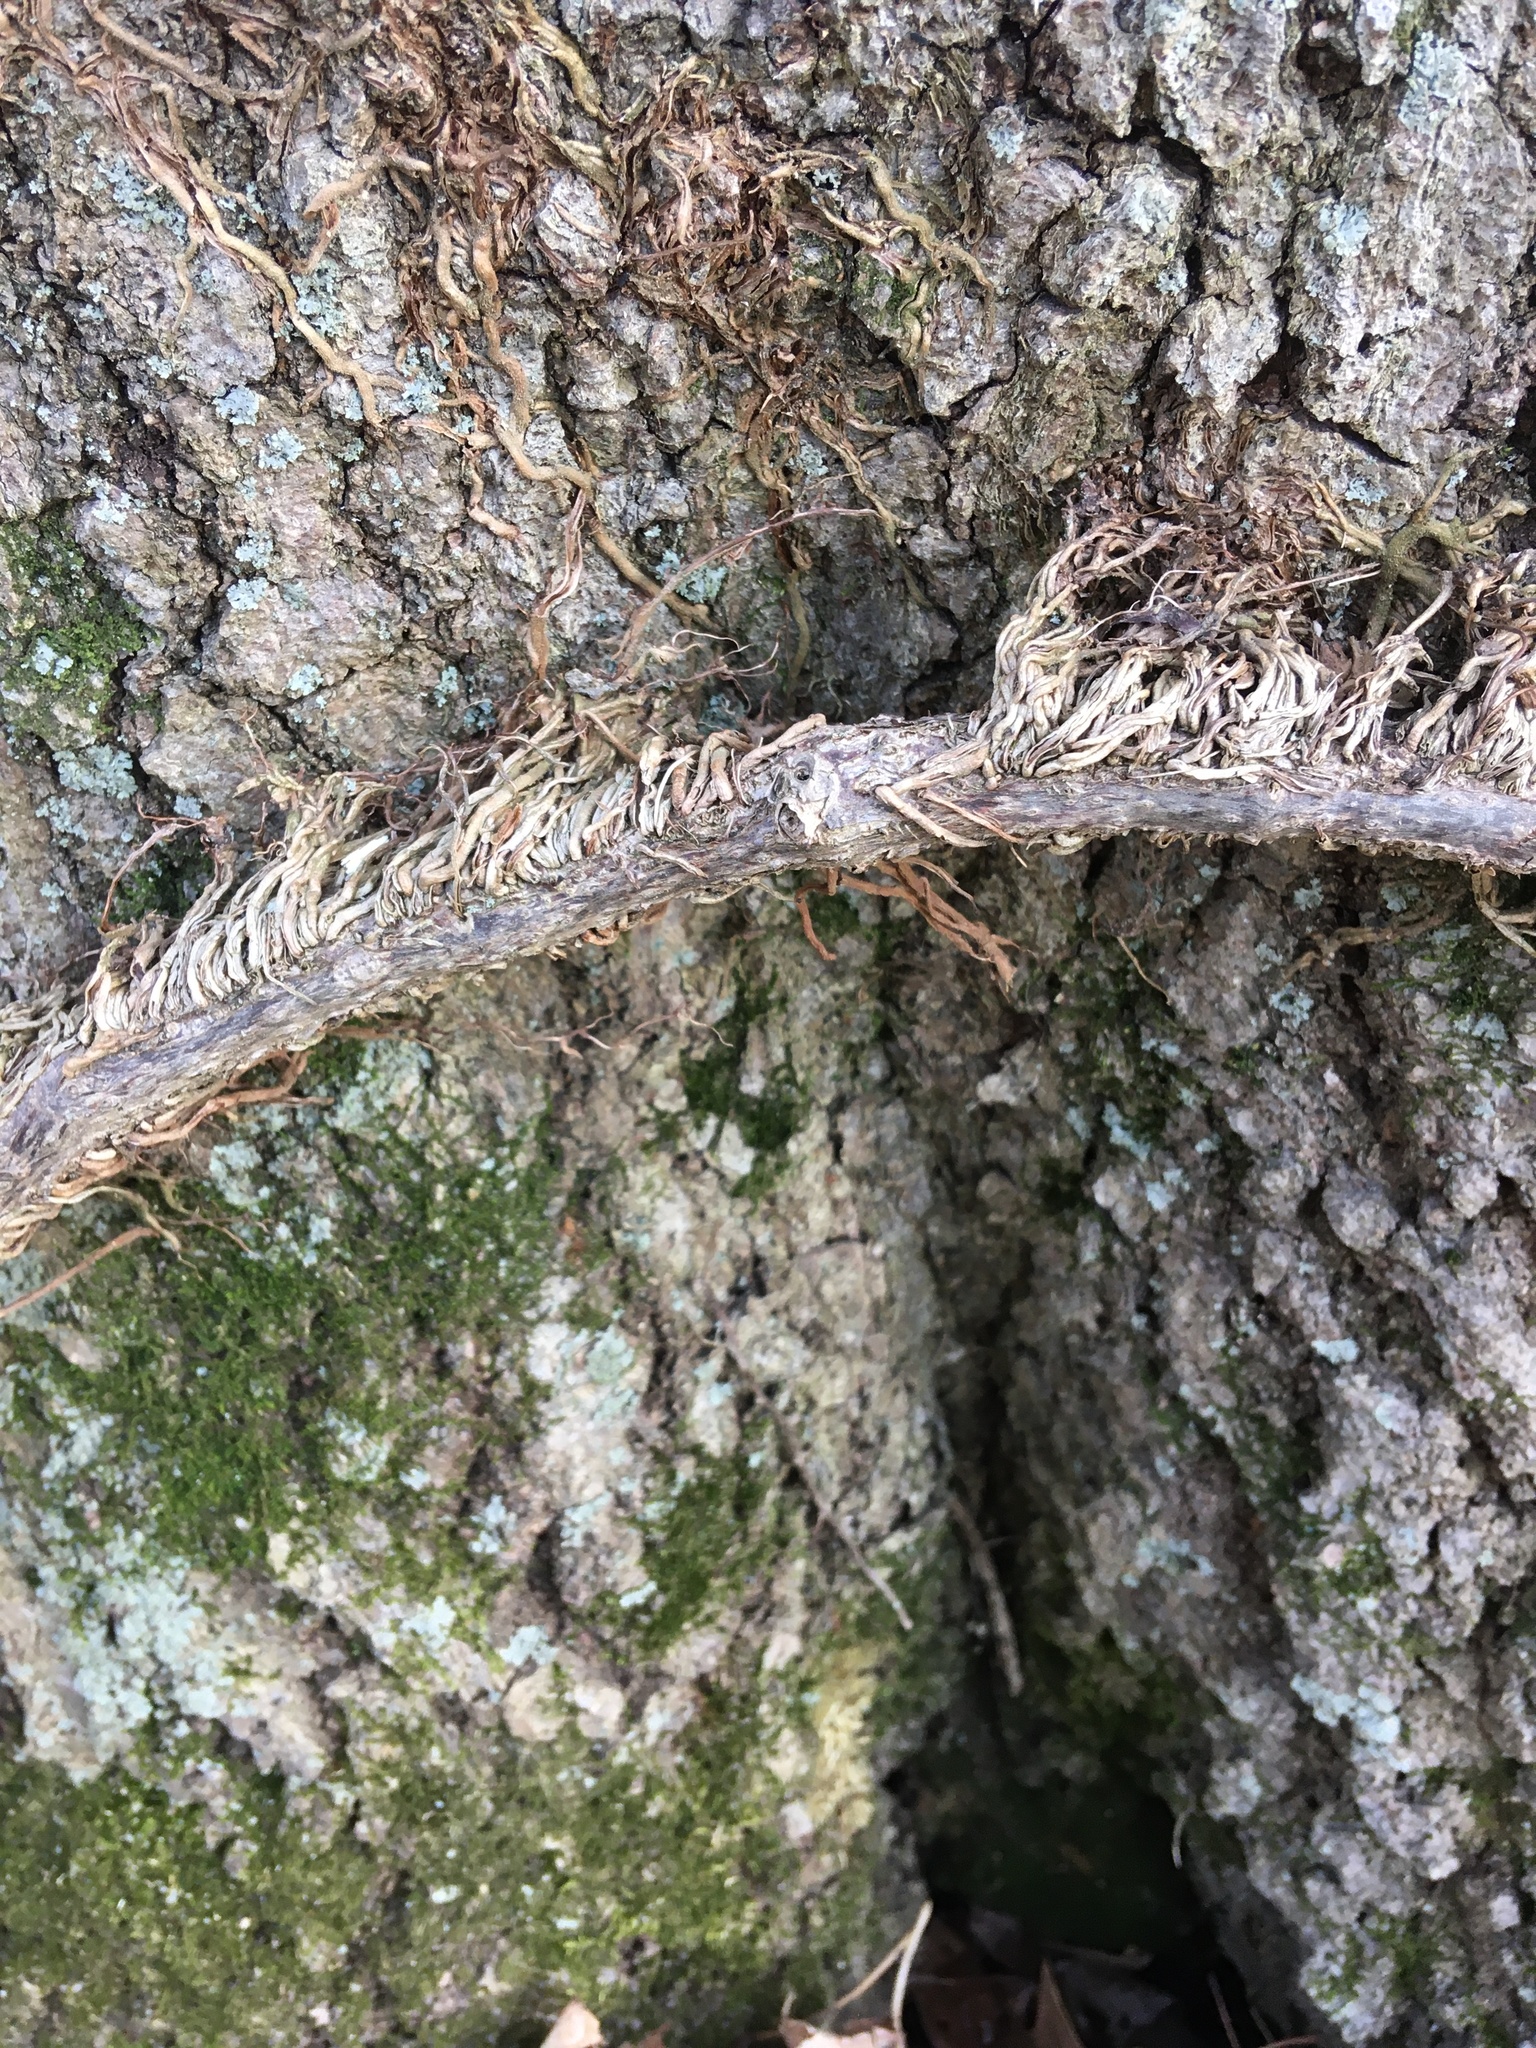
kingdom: Plantae
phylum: Tracheophyta
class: Magnoliopsida
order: Sapindales
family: Anacardiaceae
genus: Toxicodendron
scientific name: Toxicodendron radicans
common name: Poison ivy
